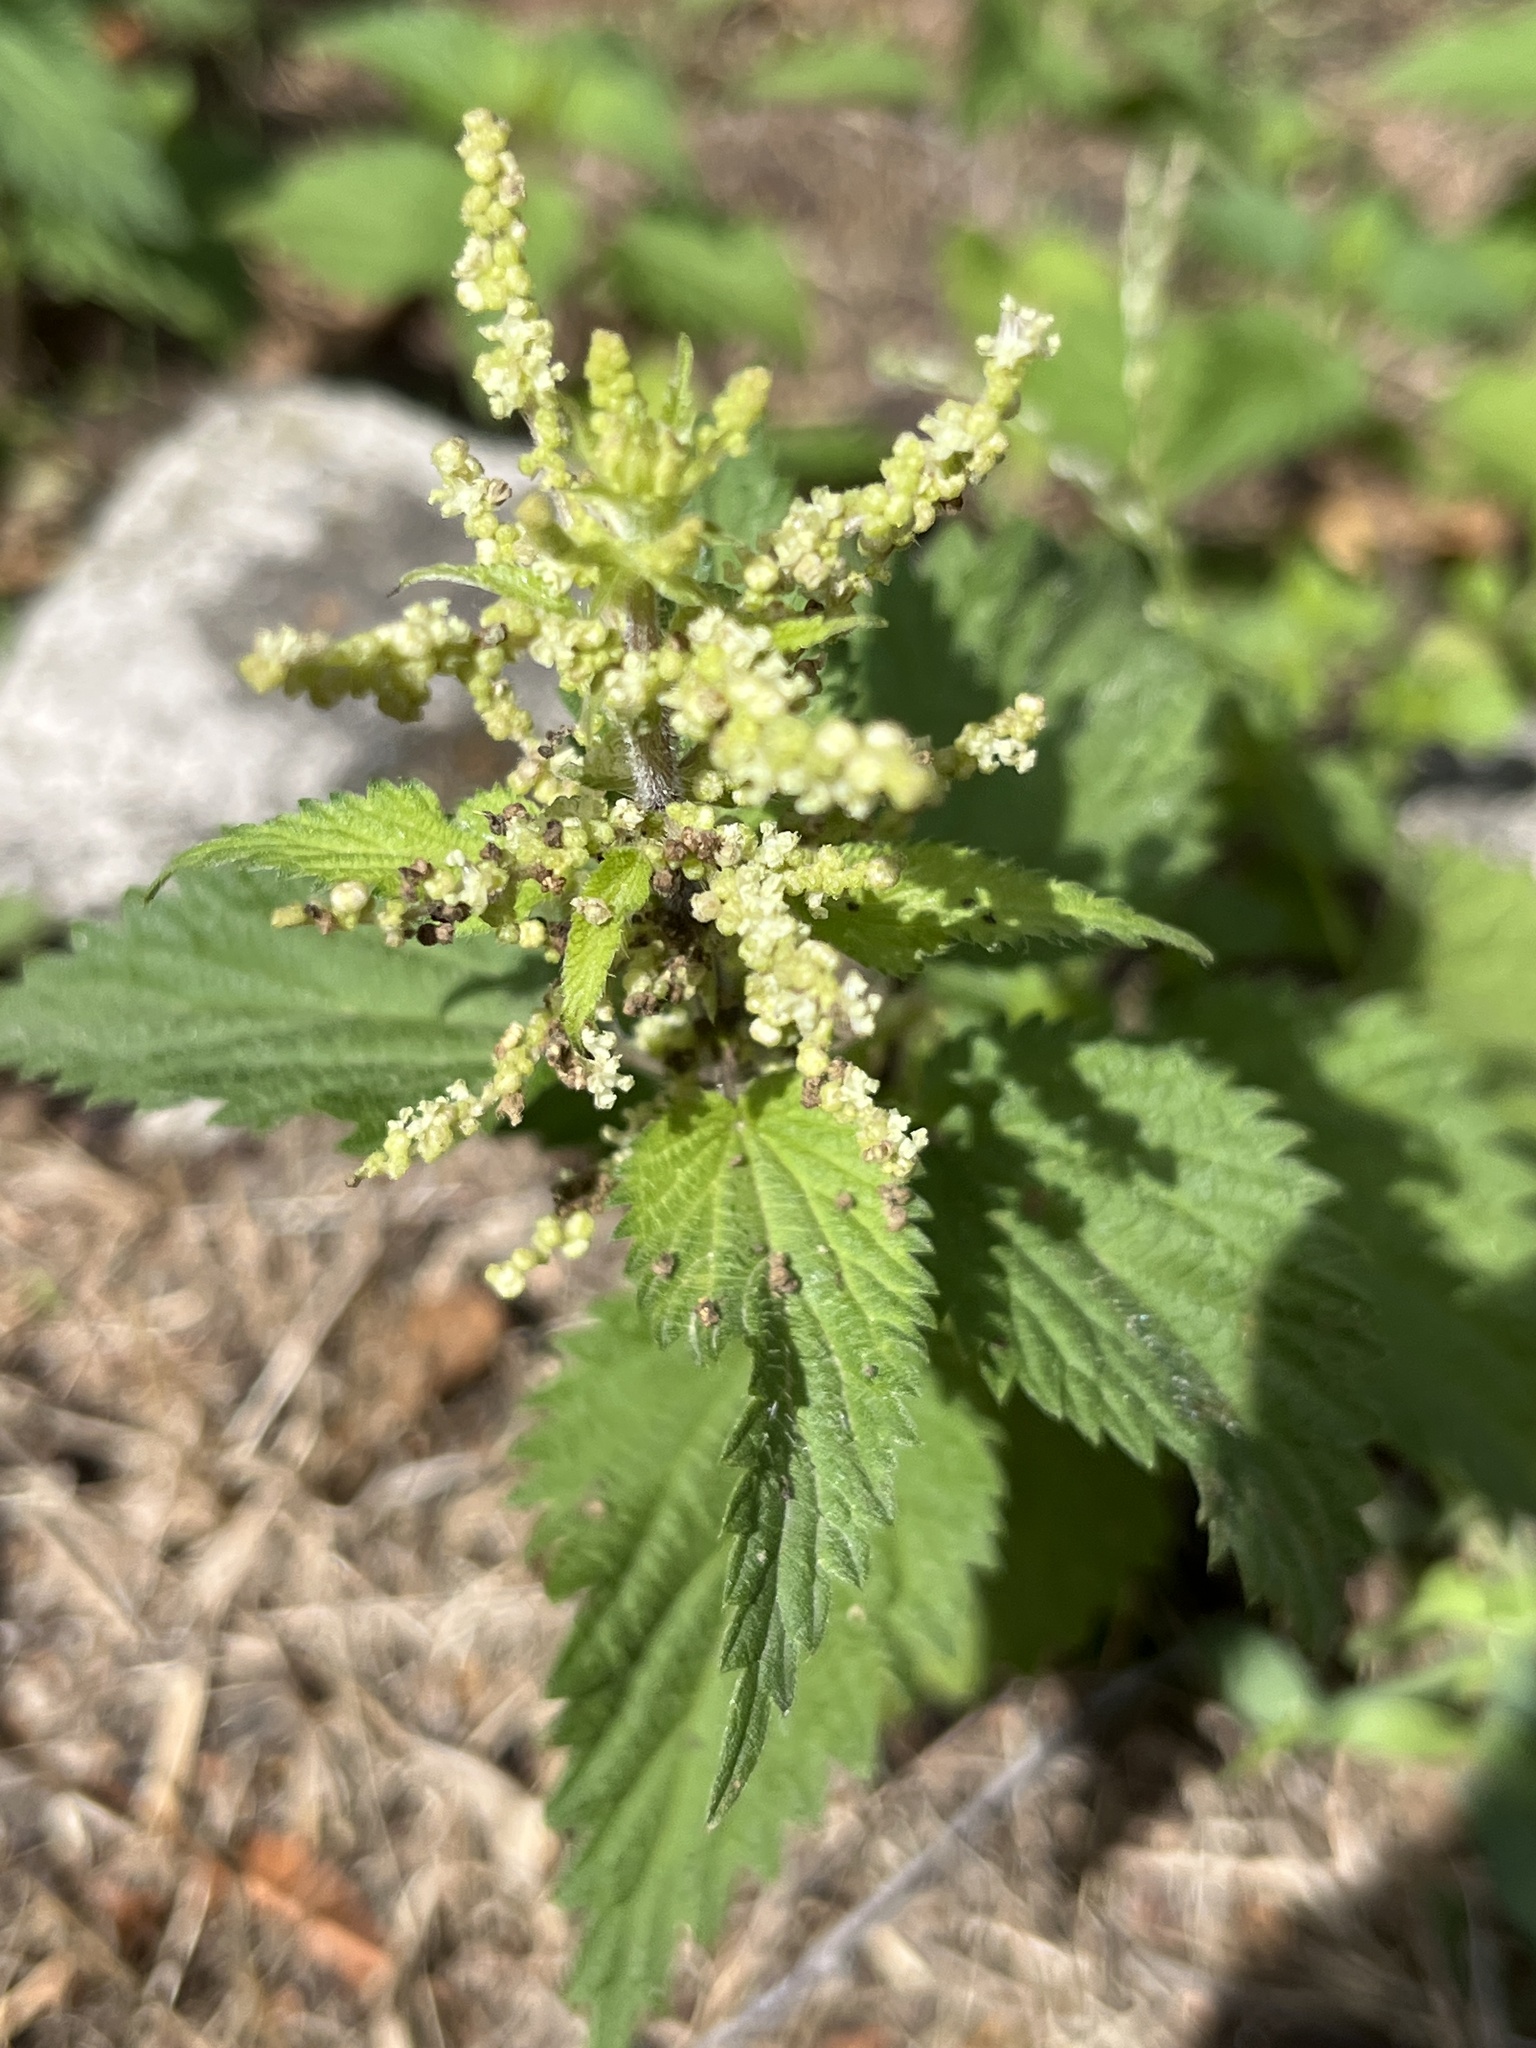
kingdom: Plantae
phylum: Tracheophyta
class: Magnoliopsida
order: Rosales
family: Urticaceae
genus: Urtica
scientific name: Urtica dioica
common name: Common nettle
